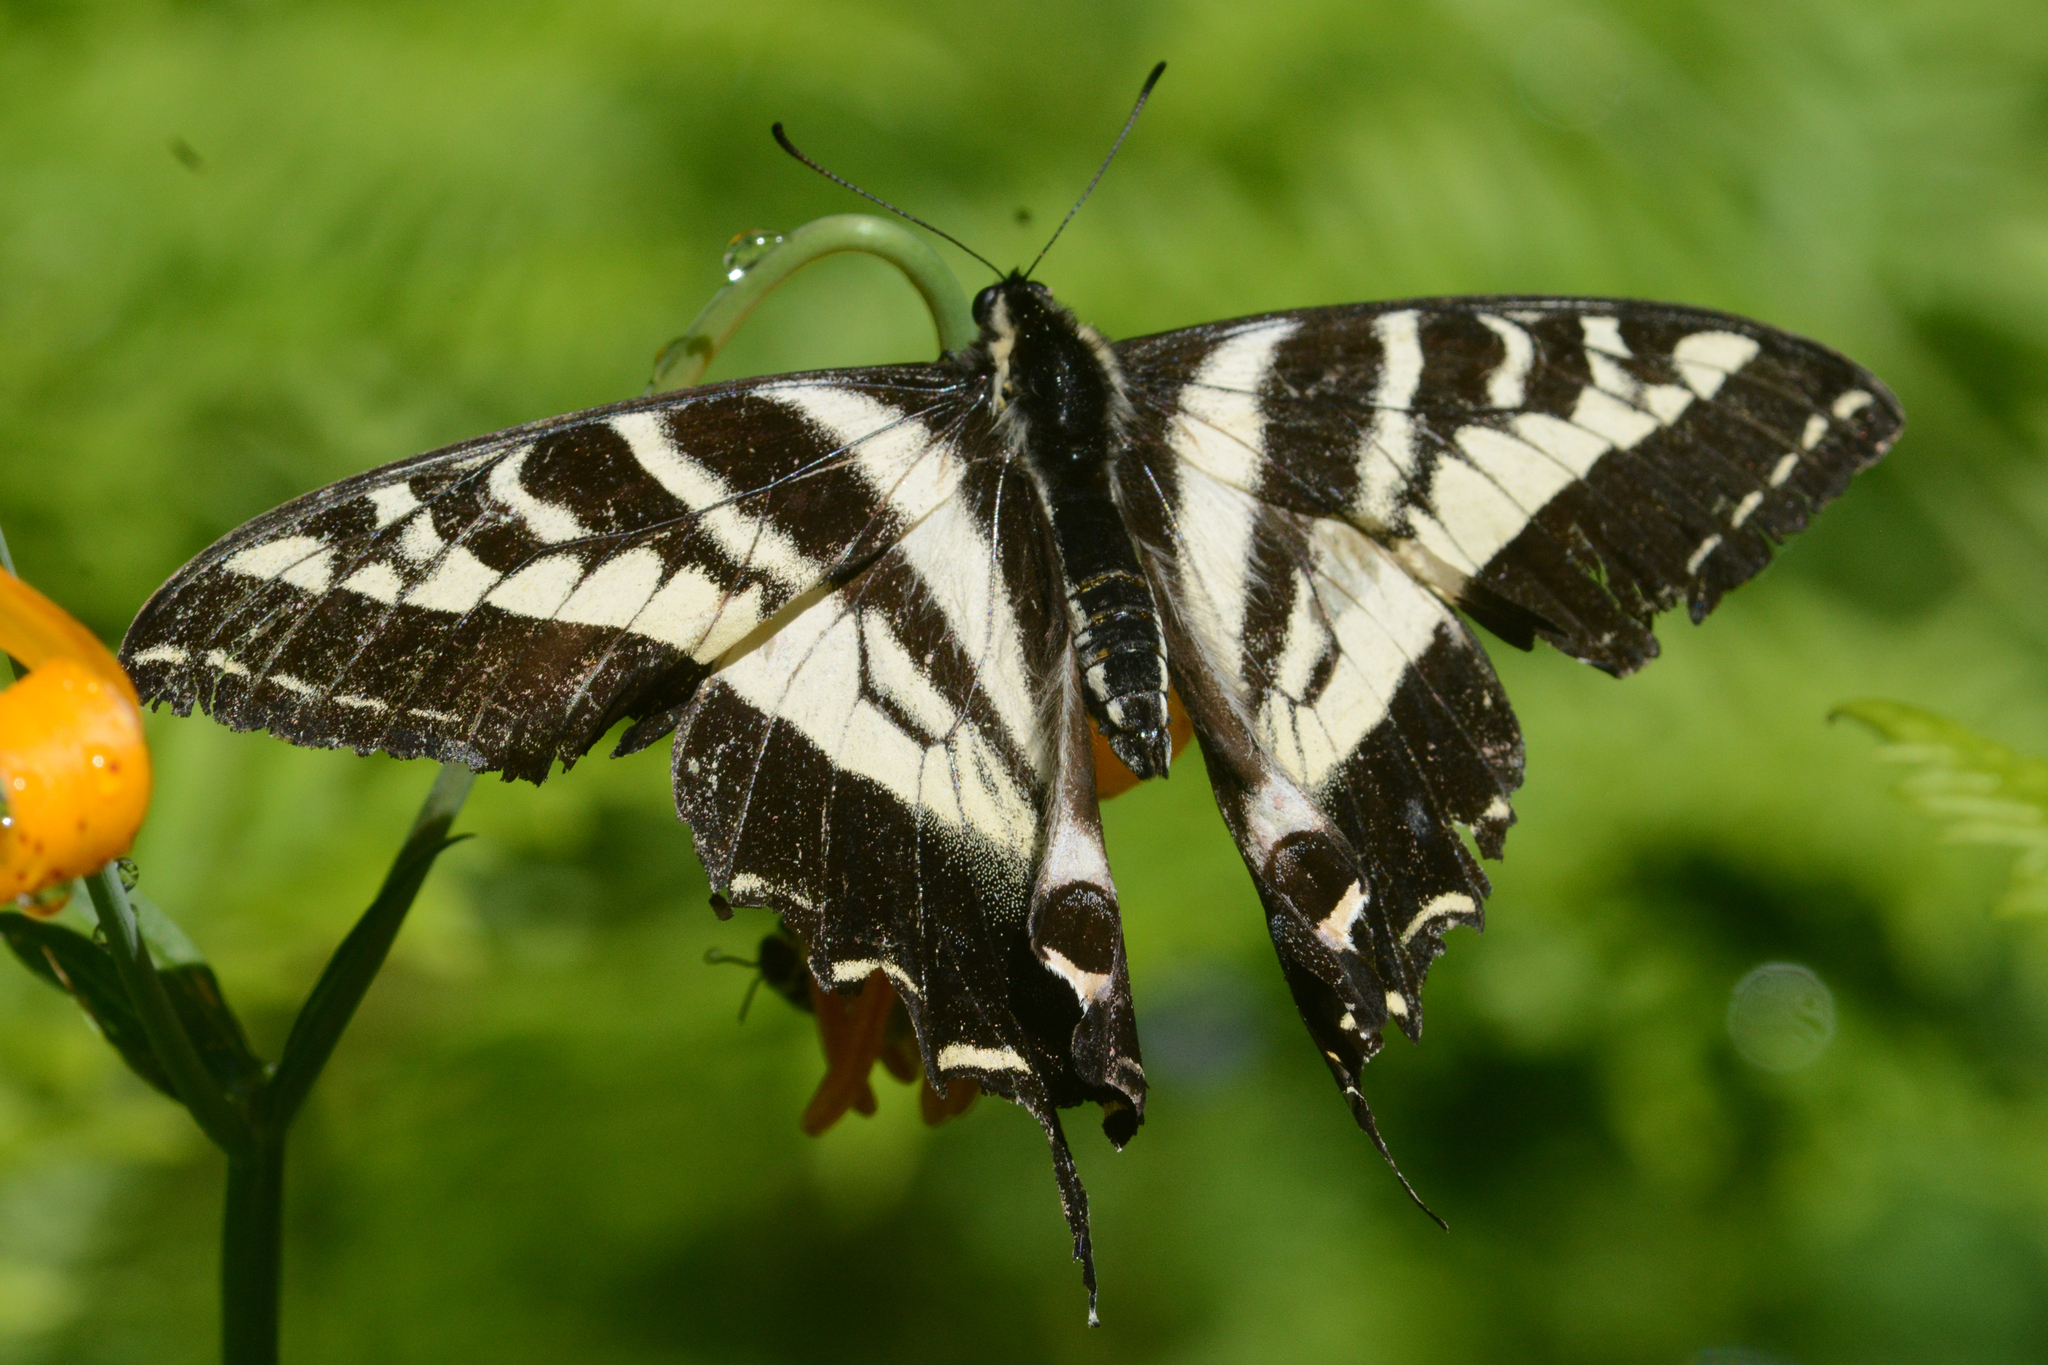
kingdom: Animalia
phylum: Arthropoda
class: Insecta
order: Lepidoptera
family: Papilionidae
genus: Papilio
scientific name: Papilio eurymedon
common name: Pale tiger swallowtail
